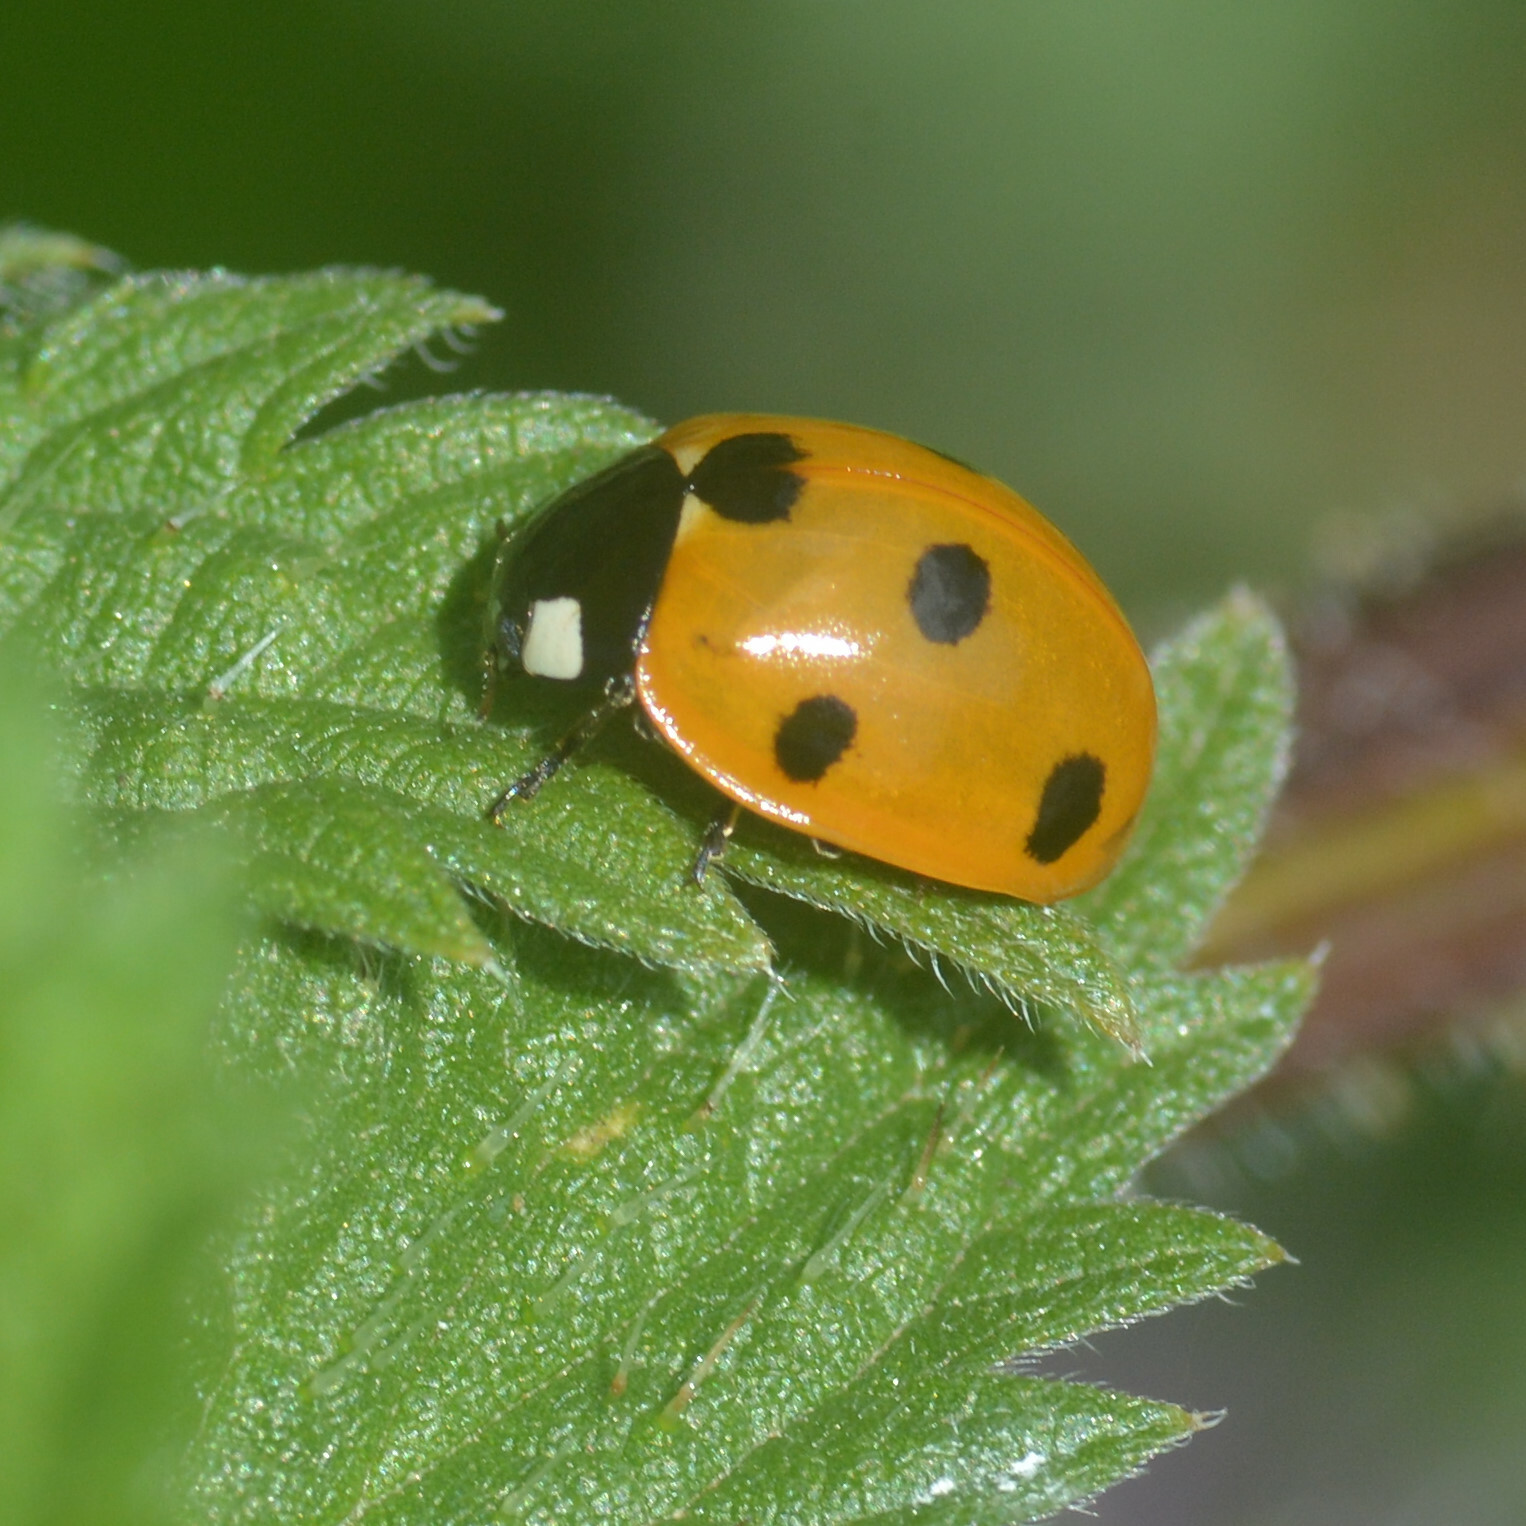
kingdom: Animalia
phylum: Arthropoda
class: Insecta
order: Coleoptera
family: Coccinellidae
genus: Coccinella
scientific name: Coccinella septempunctata
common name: Sevenspotted lady beetle
